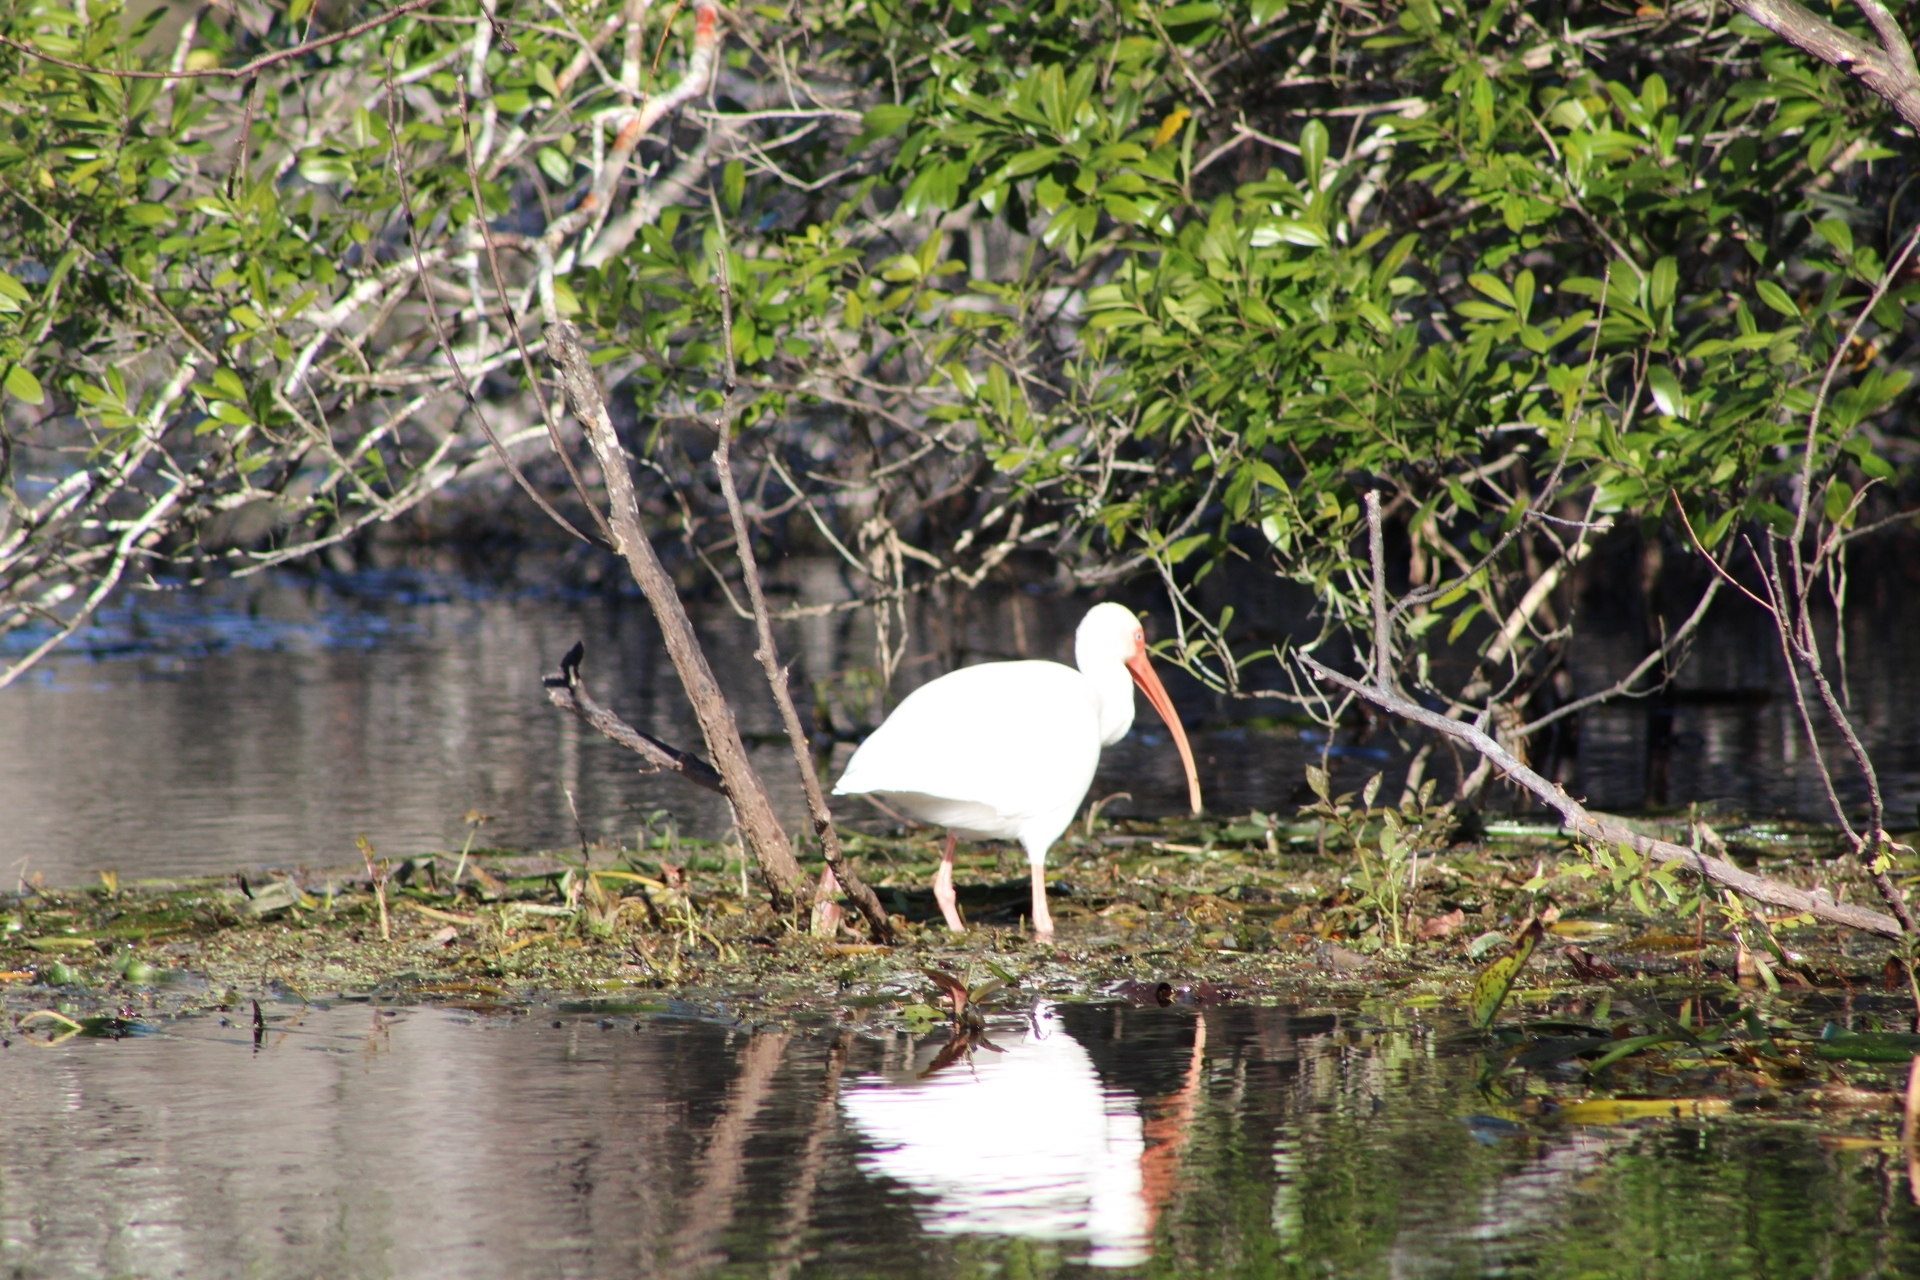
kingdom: Animalia
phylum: Chordata
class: Aves
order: Pelecaniformes
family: Threskiornithidae
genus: Eudocimus
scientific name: Eudocimus albus
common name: White ibis
